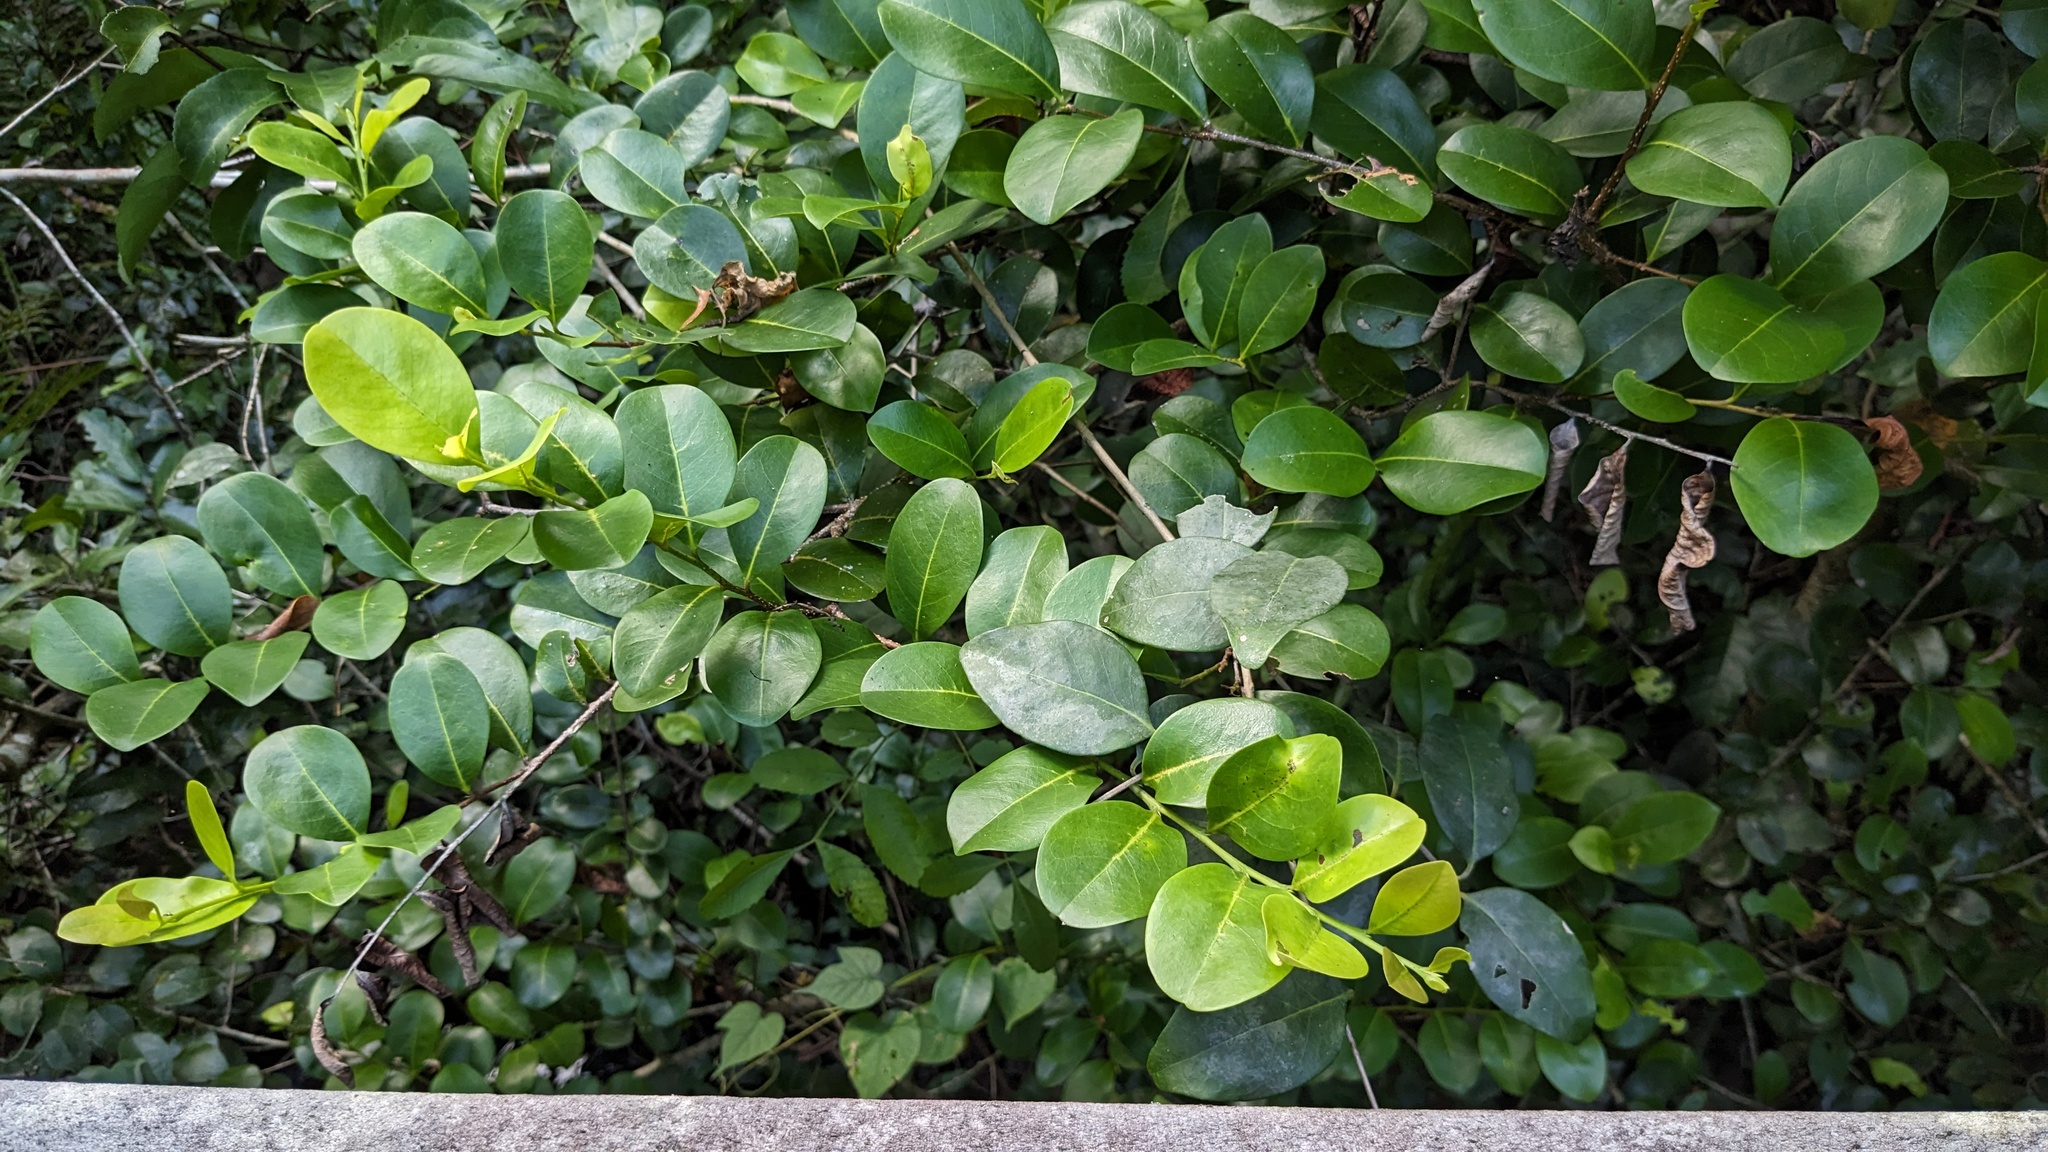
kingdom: Plantae
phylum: Tracheophyta
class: Magnoliopsida
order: Malpighiales
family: Chrysobalanaceae
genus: Chrysobalanus
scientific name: Chrysobalanus icaco
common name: Coco plum
